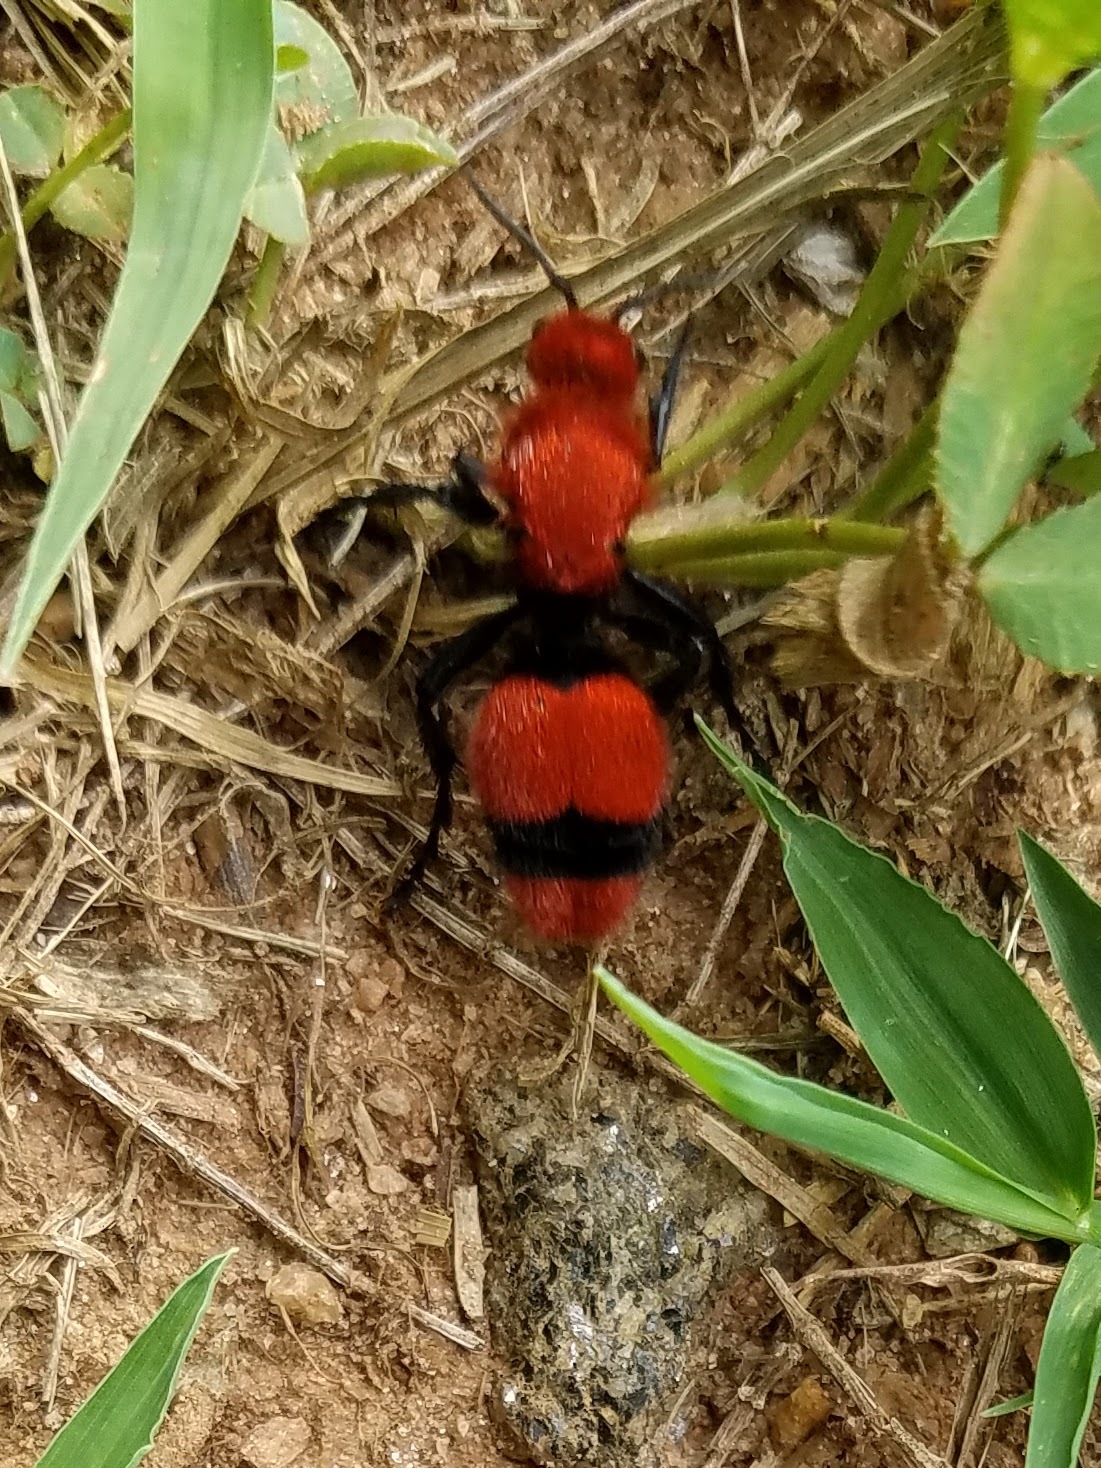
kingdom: Animalia
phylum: Arthropoda
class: Insecta
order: Hymenoptera
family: Mutillidae
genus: Dasymutilla
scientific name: Dasymutilla occidentalis
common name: Common eastern velvet ant
